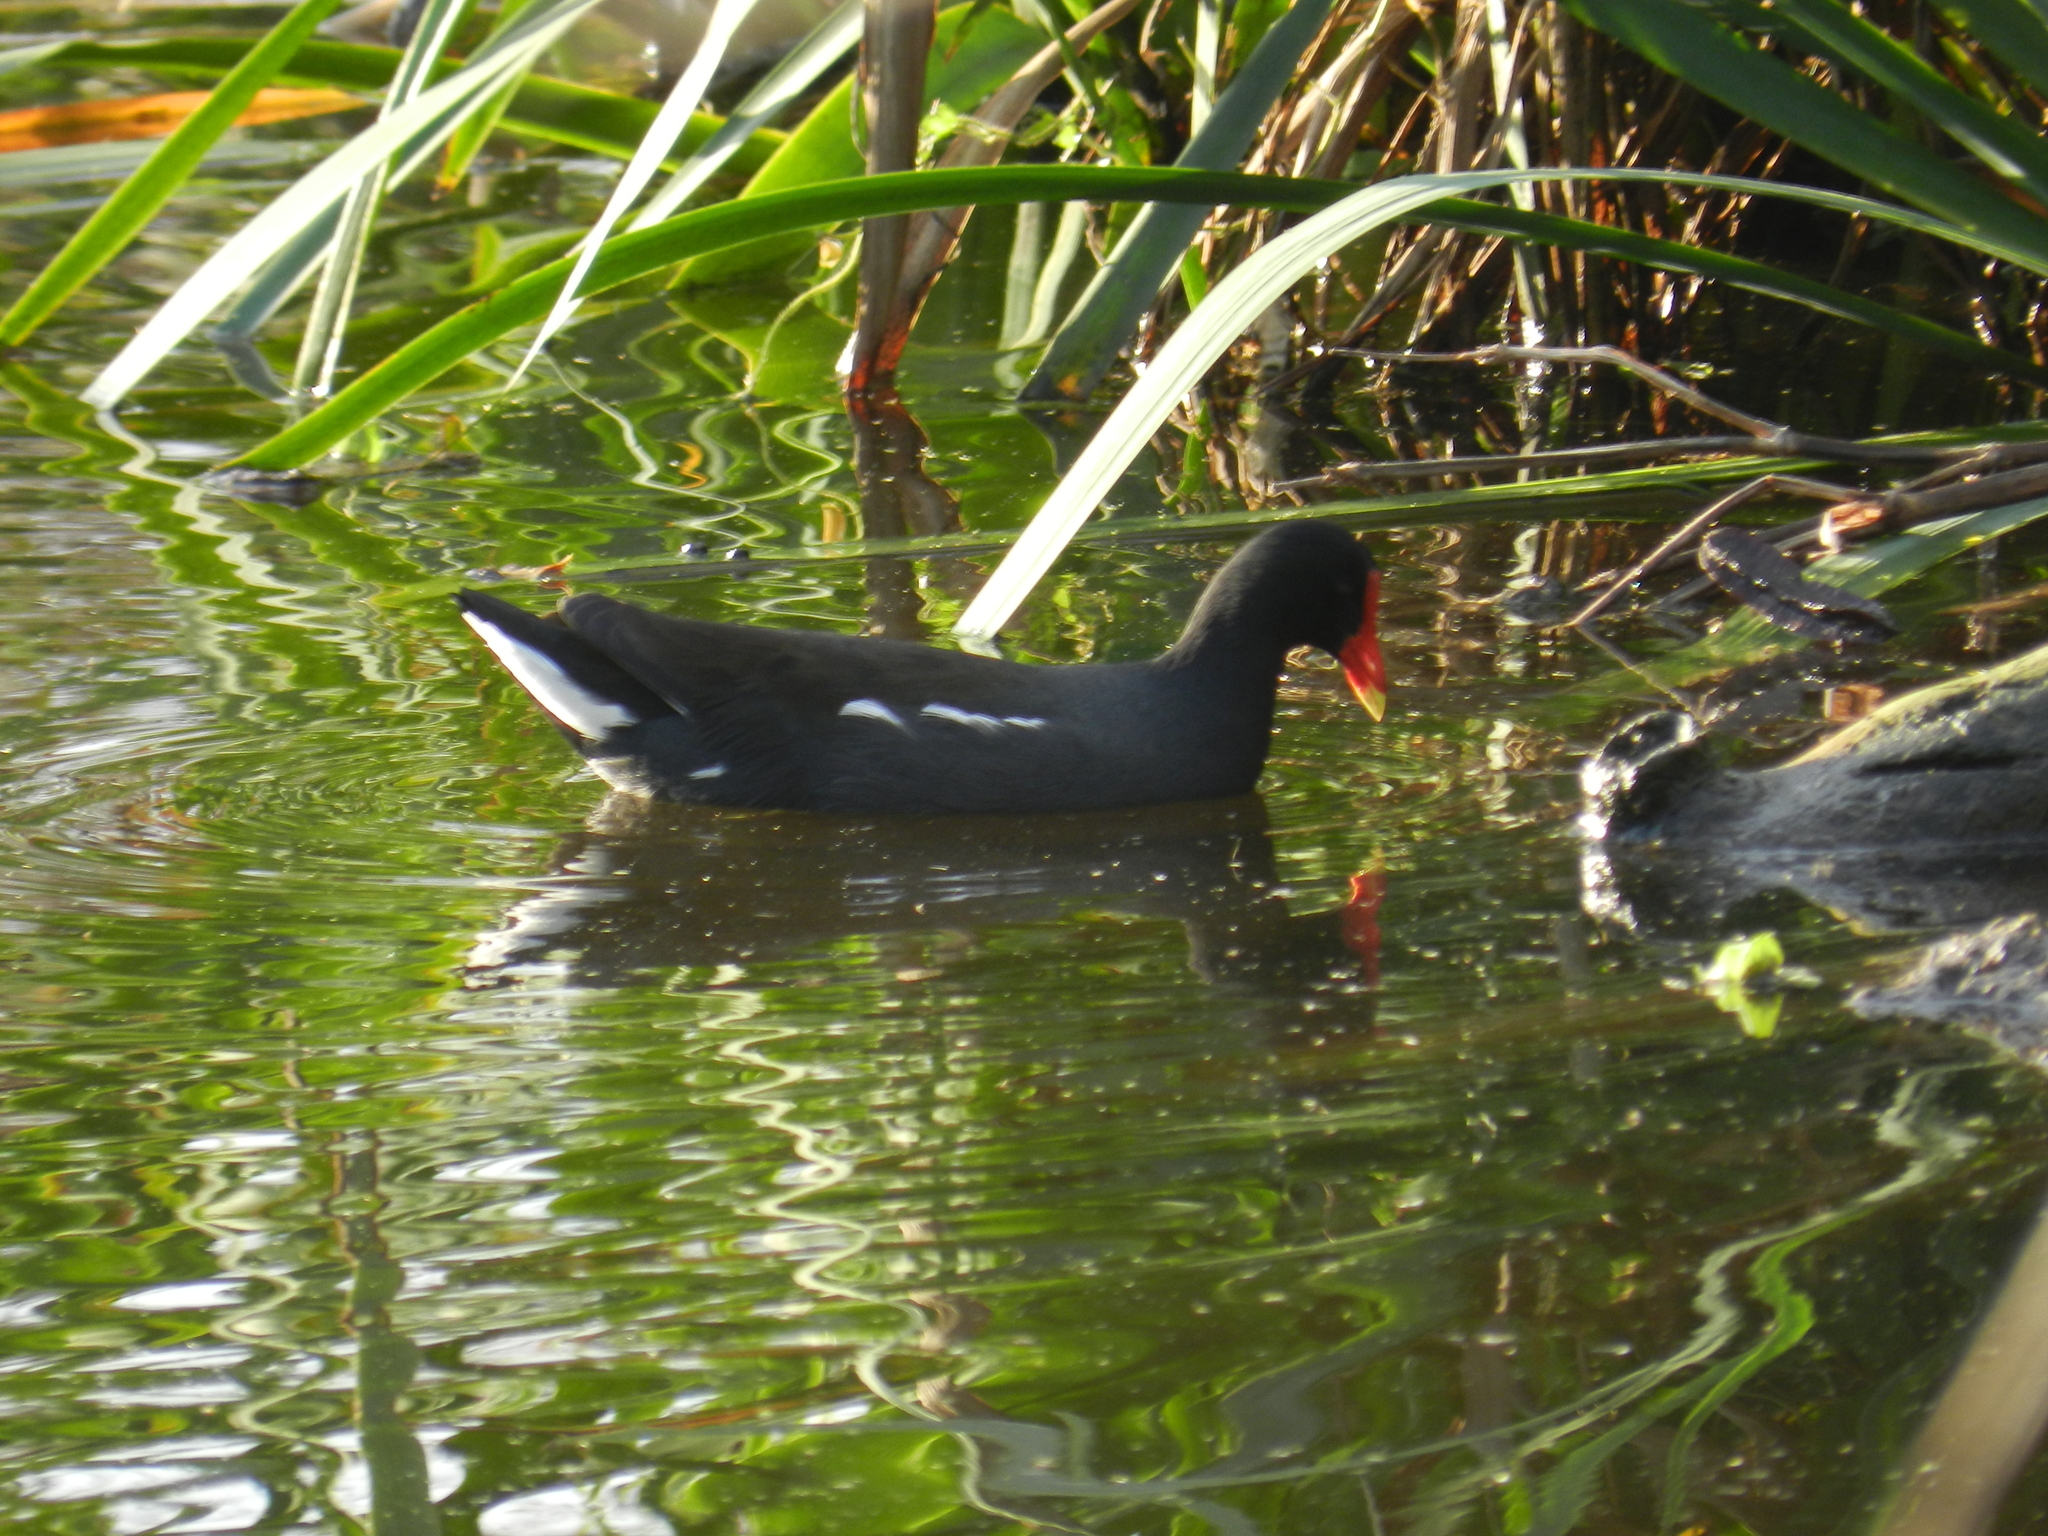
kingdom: Animalia
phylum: Chordata
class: Aves
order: Gruiformes
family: Rallidae
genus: Gallinula
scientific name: Gallinula chloropus
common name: Common moorhen
